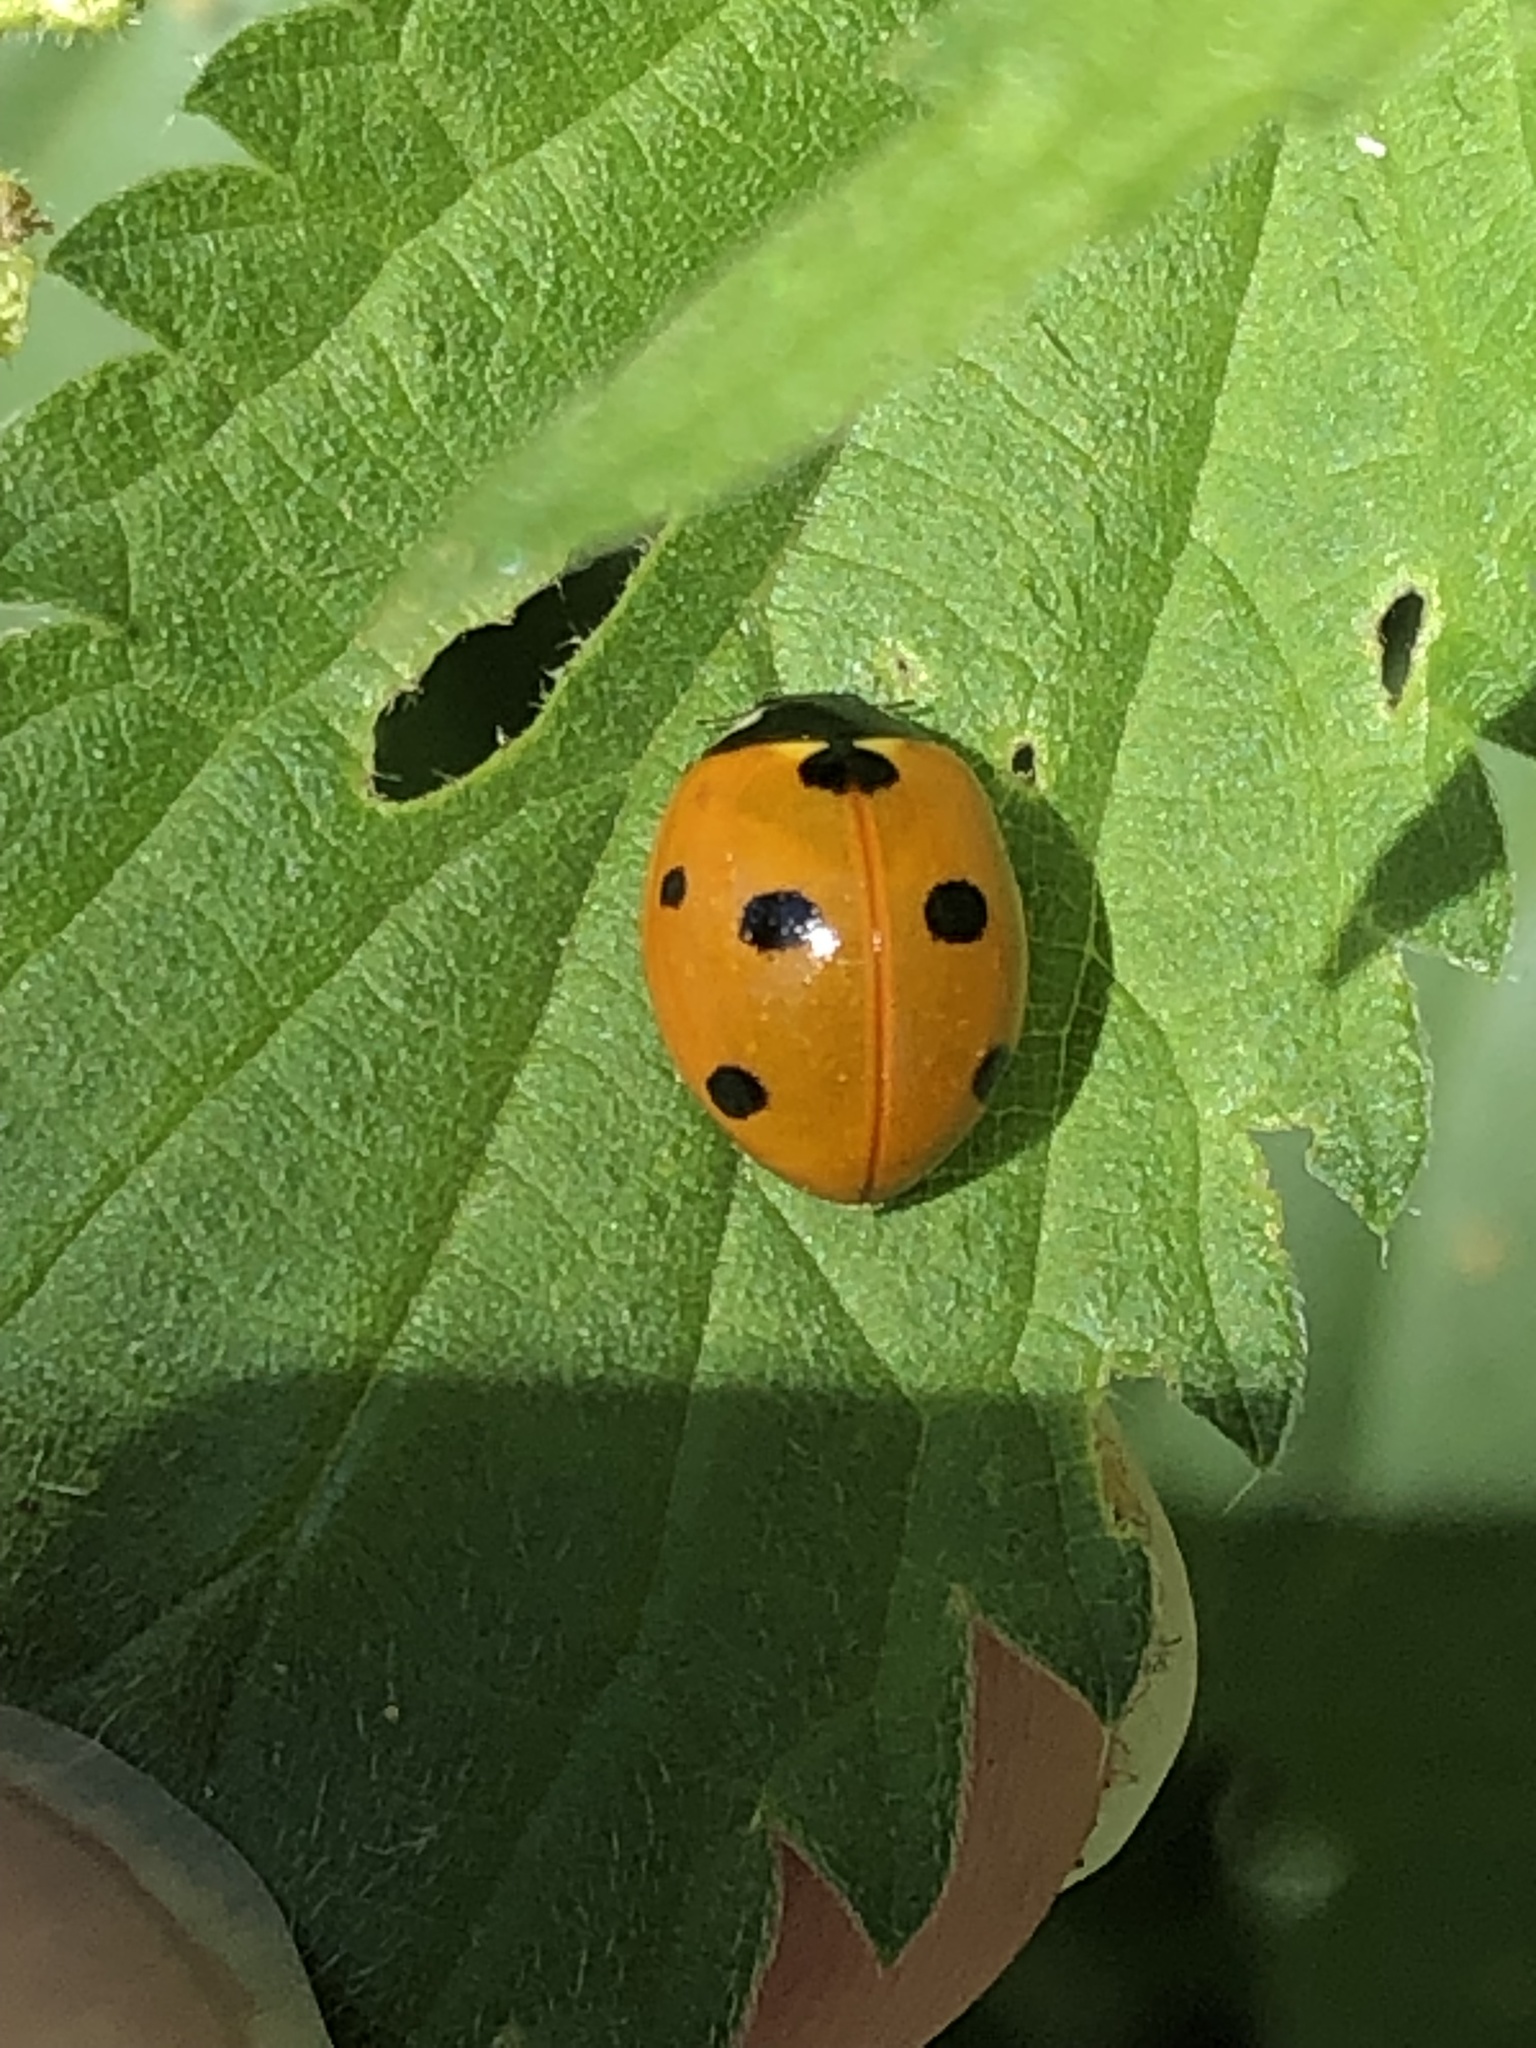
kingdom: Animalia
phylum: Arthropoda
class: Insecta
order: Coleoptera
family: Coccinellidae
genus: Coccinella
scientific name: Coccinella septempunctata
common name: Sevenspotted lady beetle
